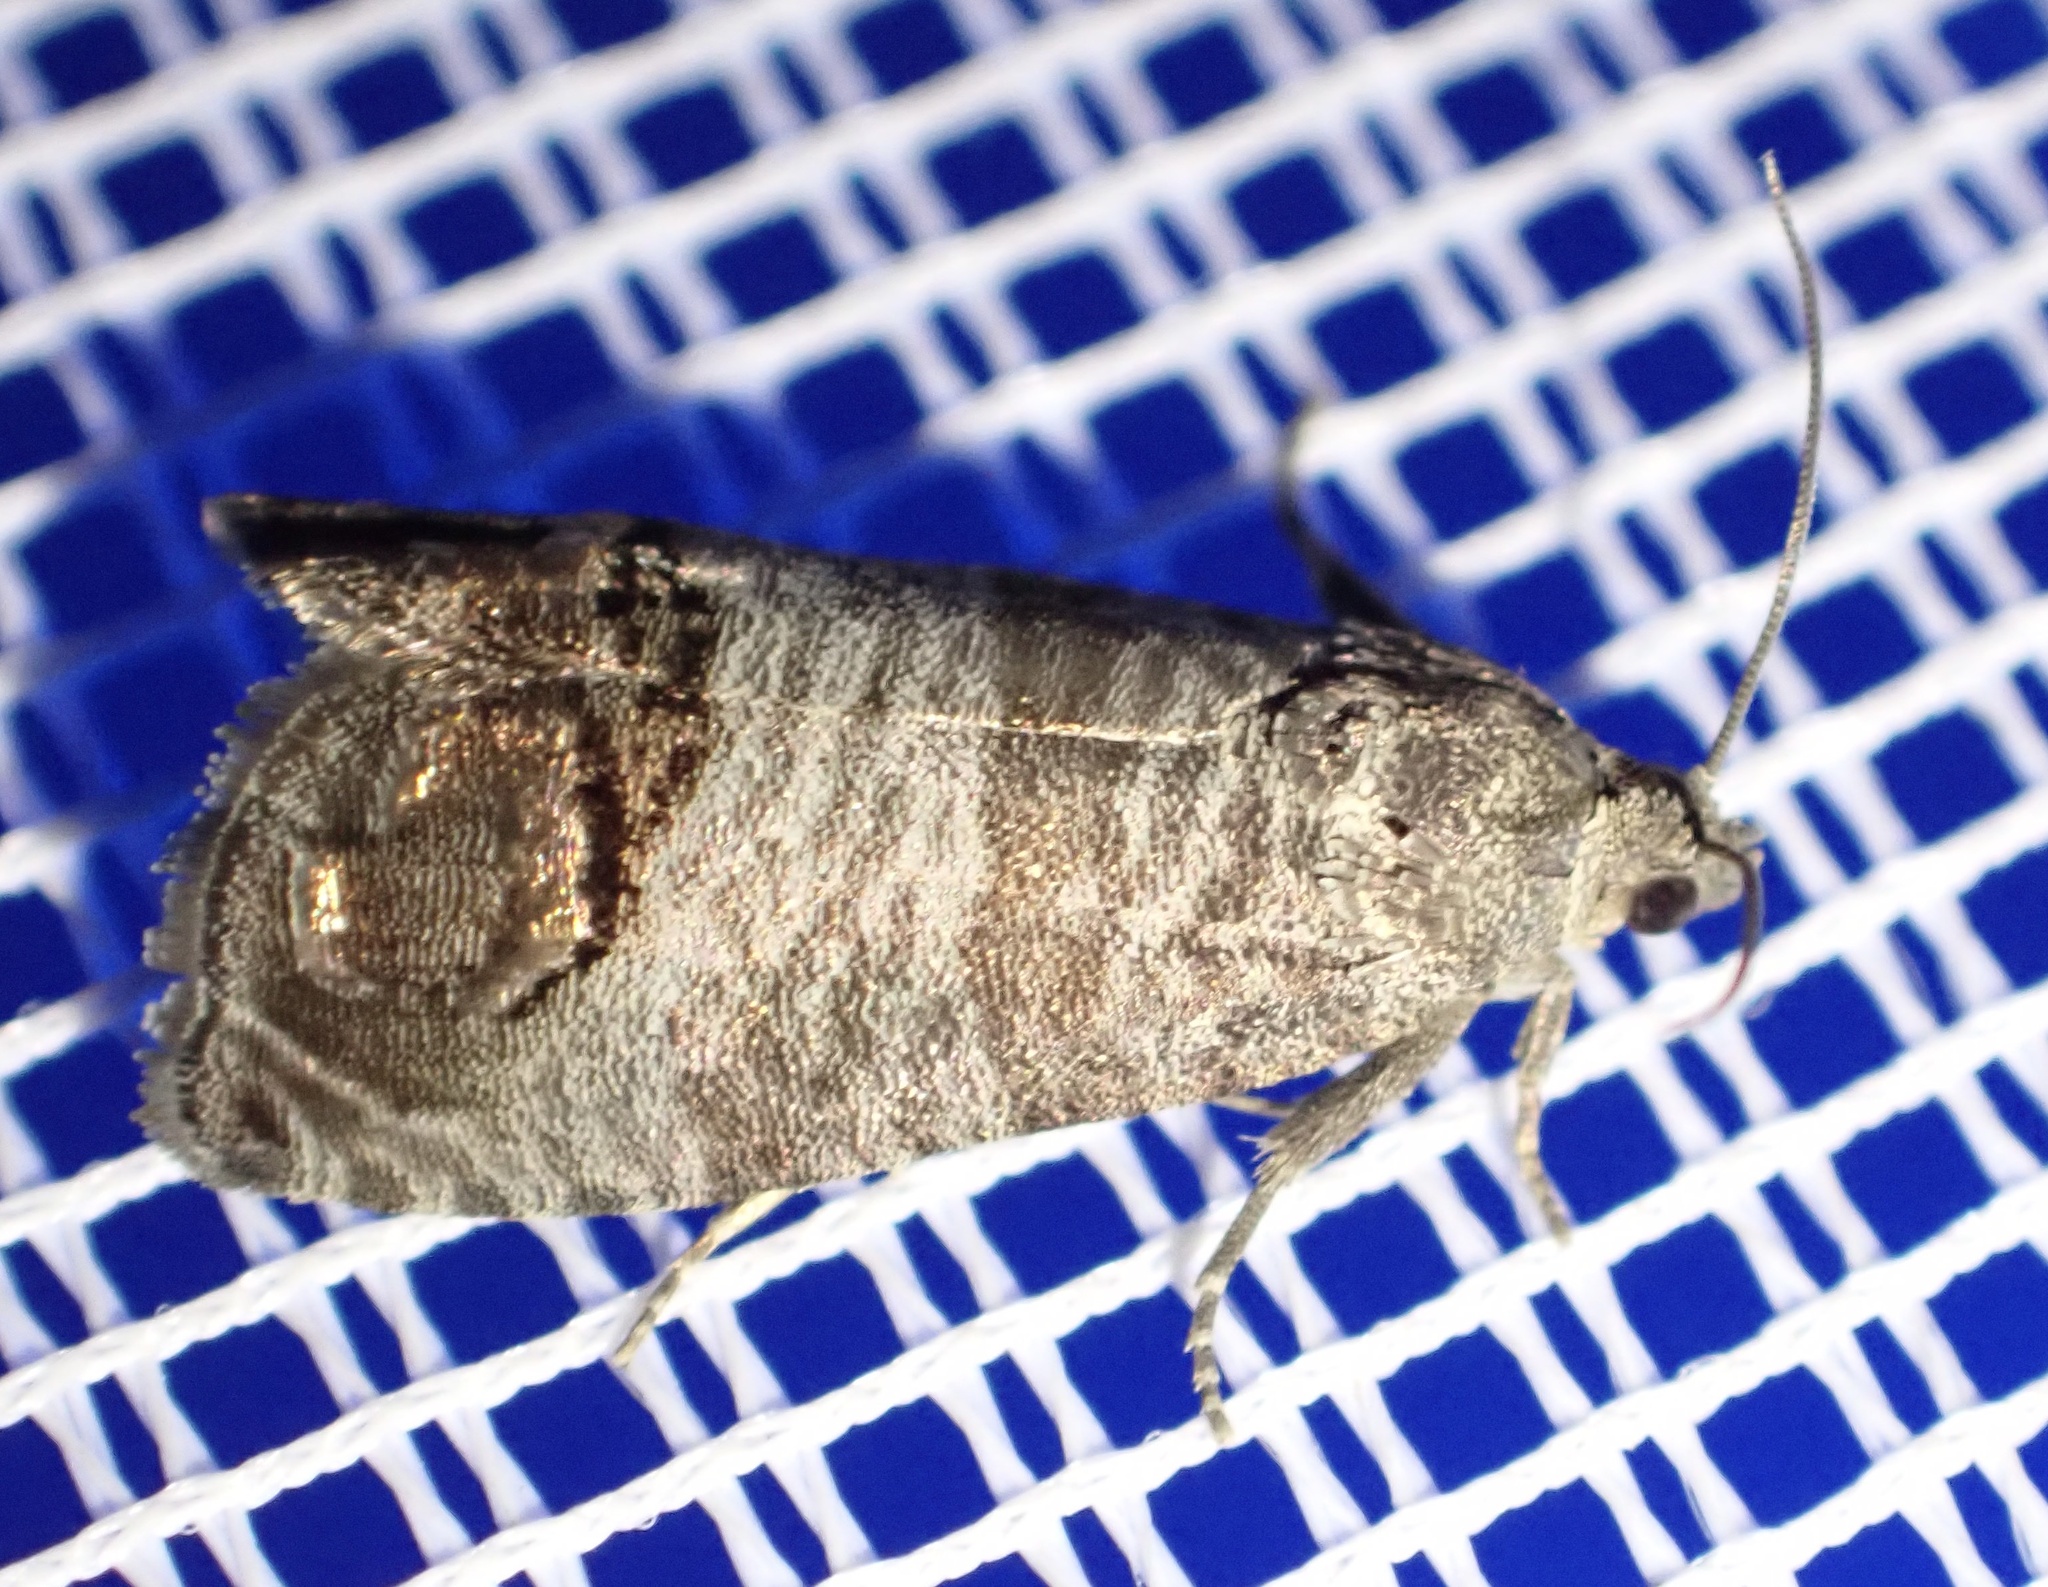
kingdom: Animalia
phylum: Arthropoda
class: Insecta
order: Lepidoptera
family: Tortricidae
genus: Cydia
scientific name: Cydia pomonella
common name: Codling moth
